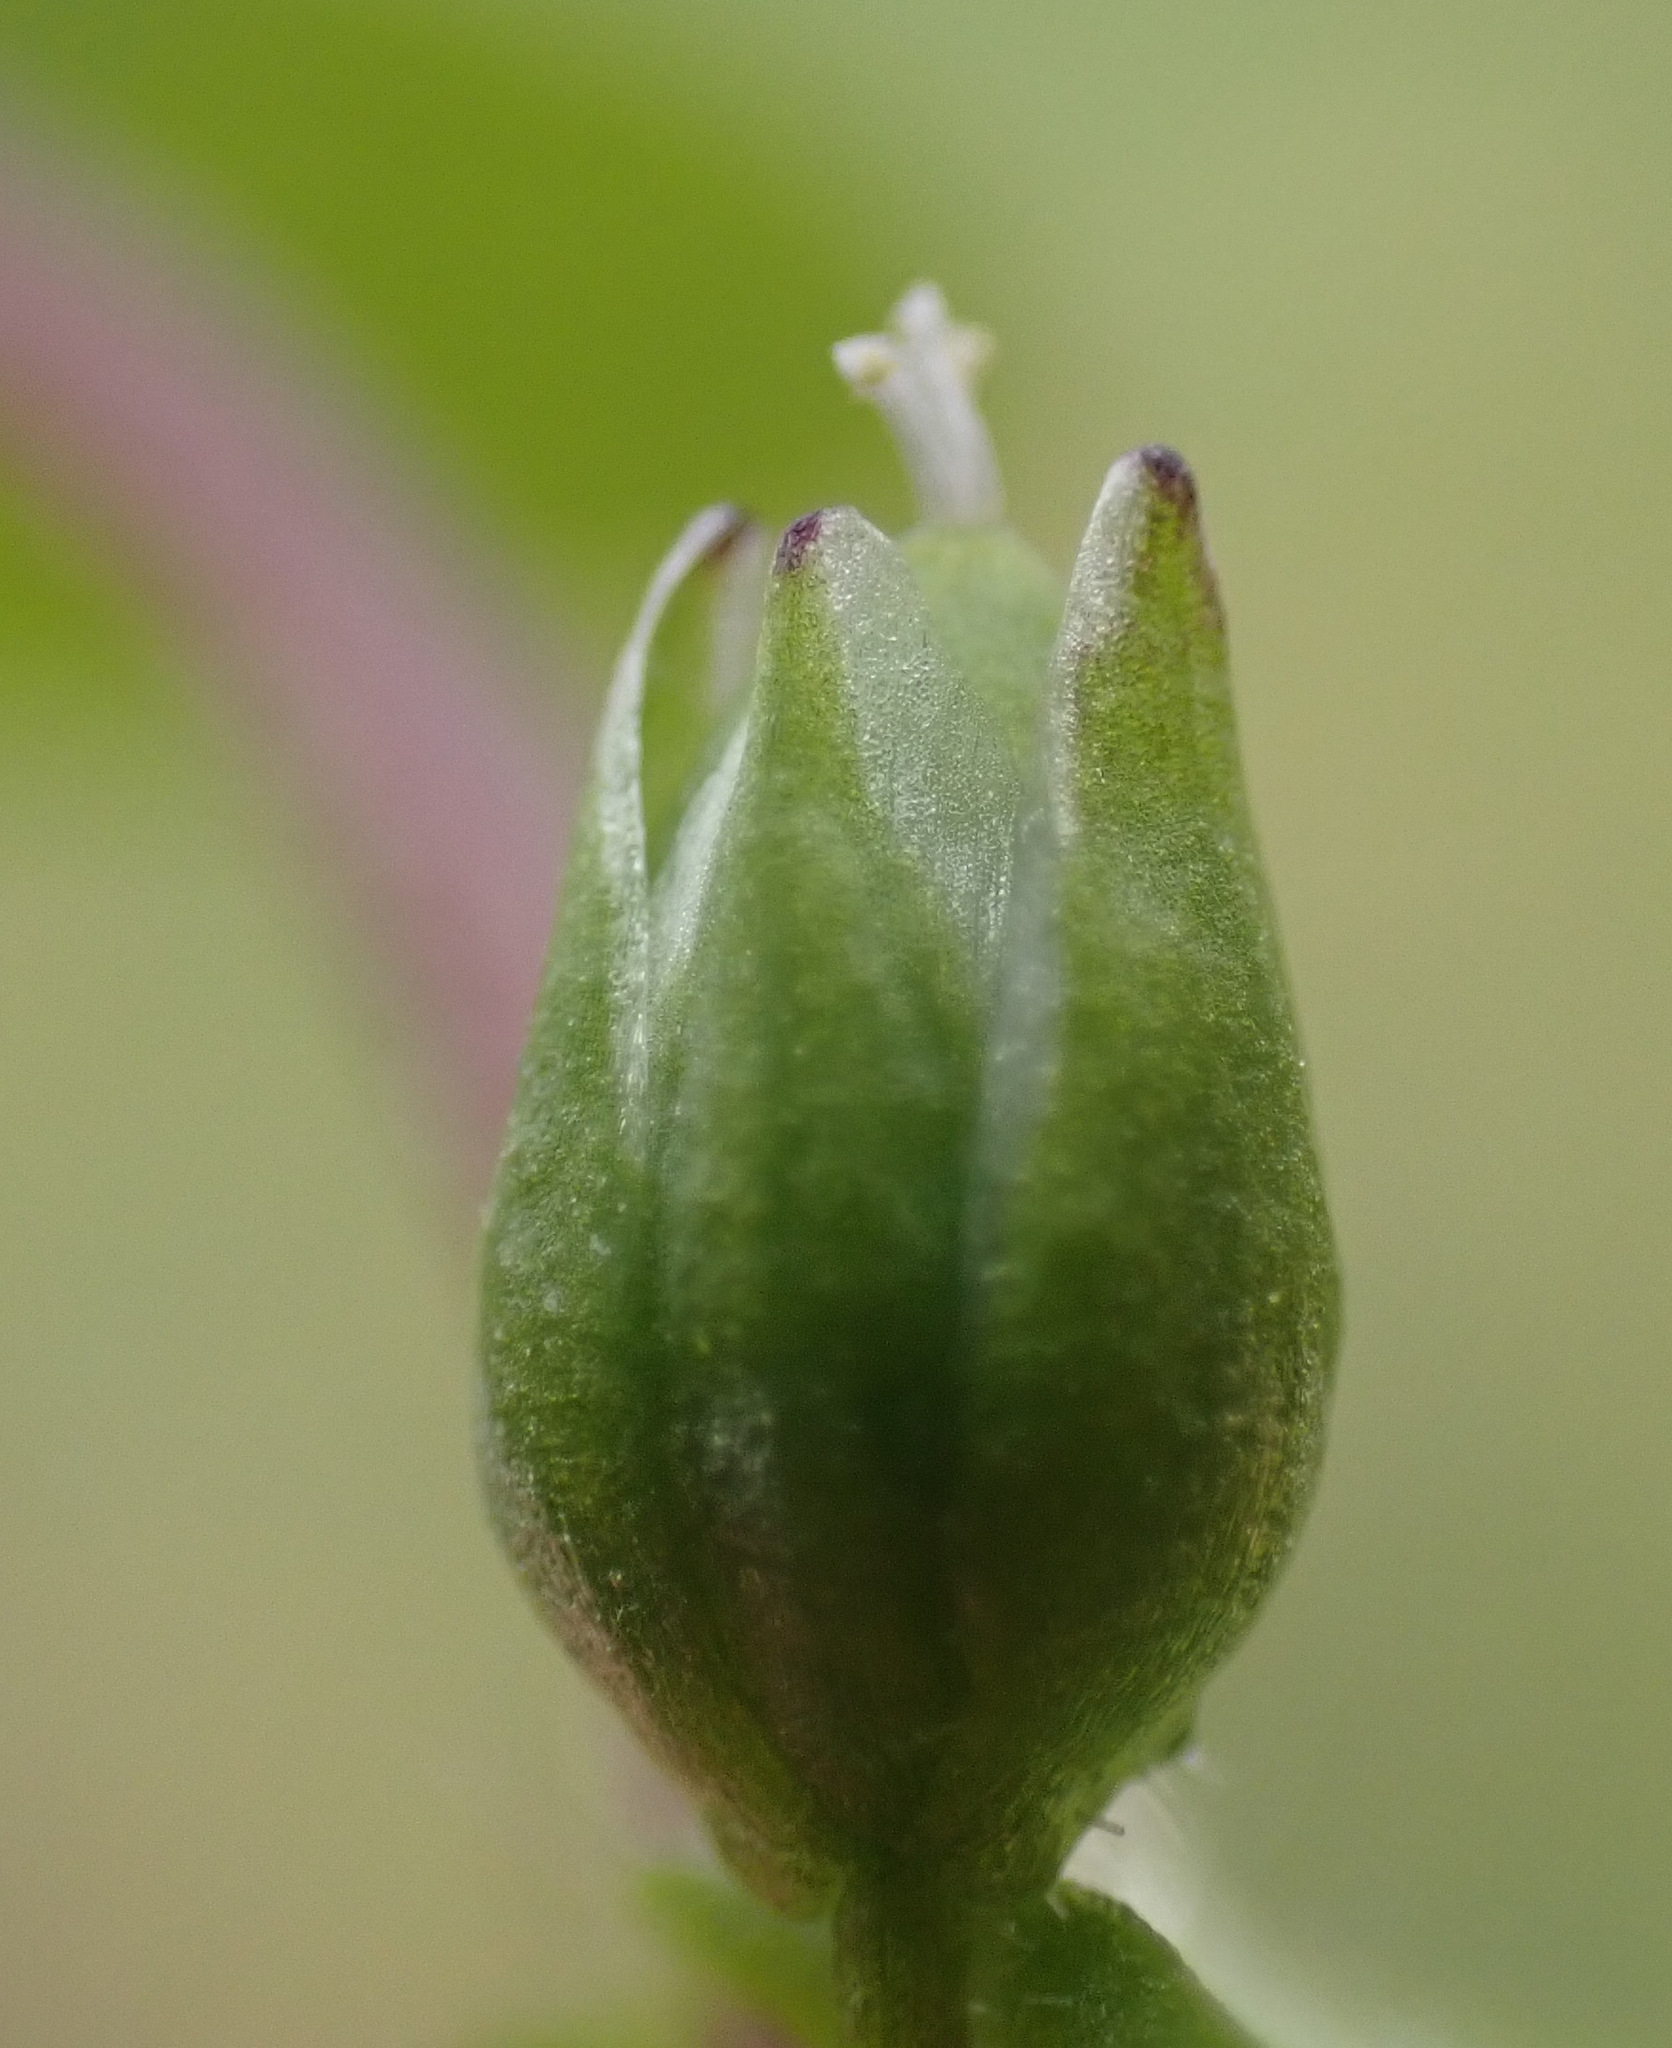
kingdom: Plantae
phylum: Tracheophyta
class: Magnoliopsida
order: Caryophyllales
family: Caryophyllaceae
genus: Stellaria
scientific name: Stellaria media
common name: Common chickweed
